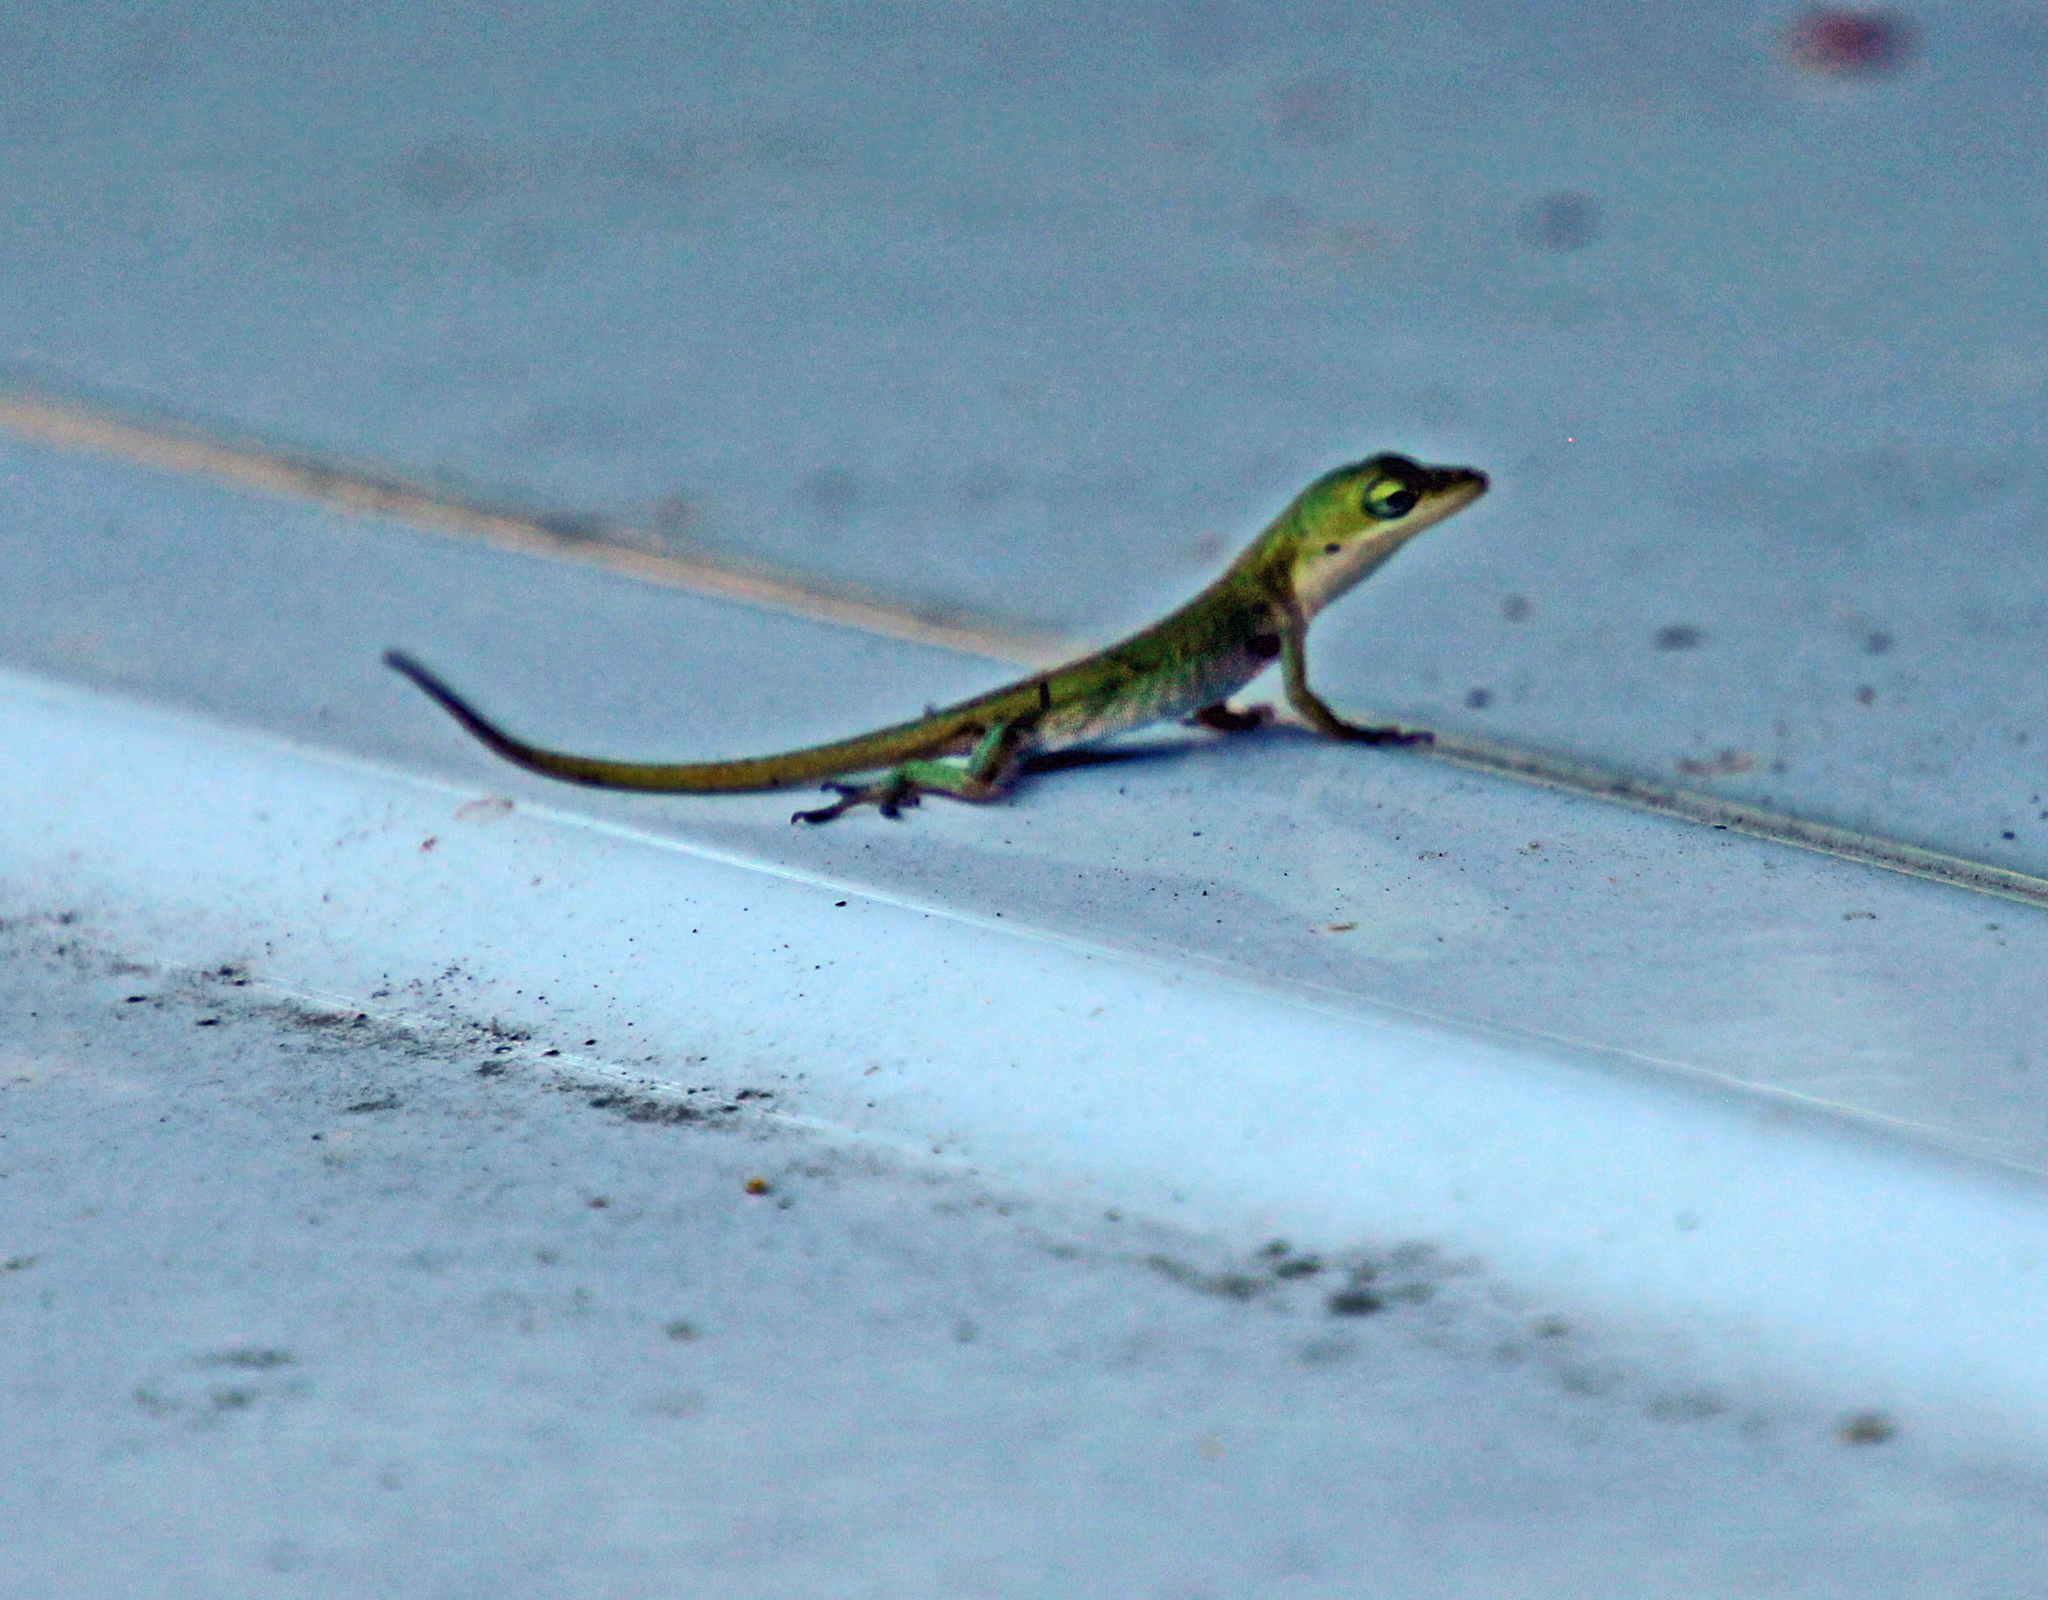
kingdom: Animalia
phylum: Chordata
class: Squamata
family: Dactyloidae
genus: Anolis
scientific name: Anolis carolinensis
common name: Green anole
